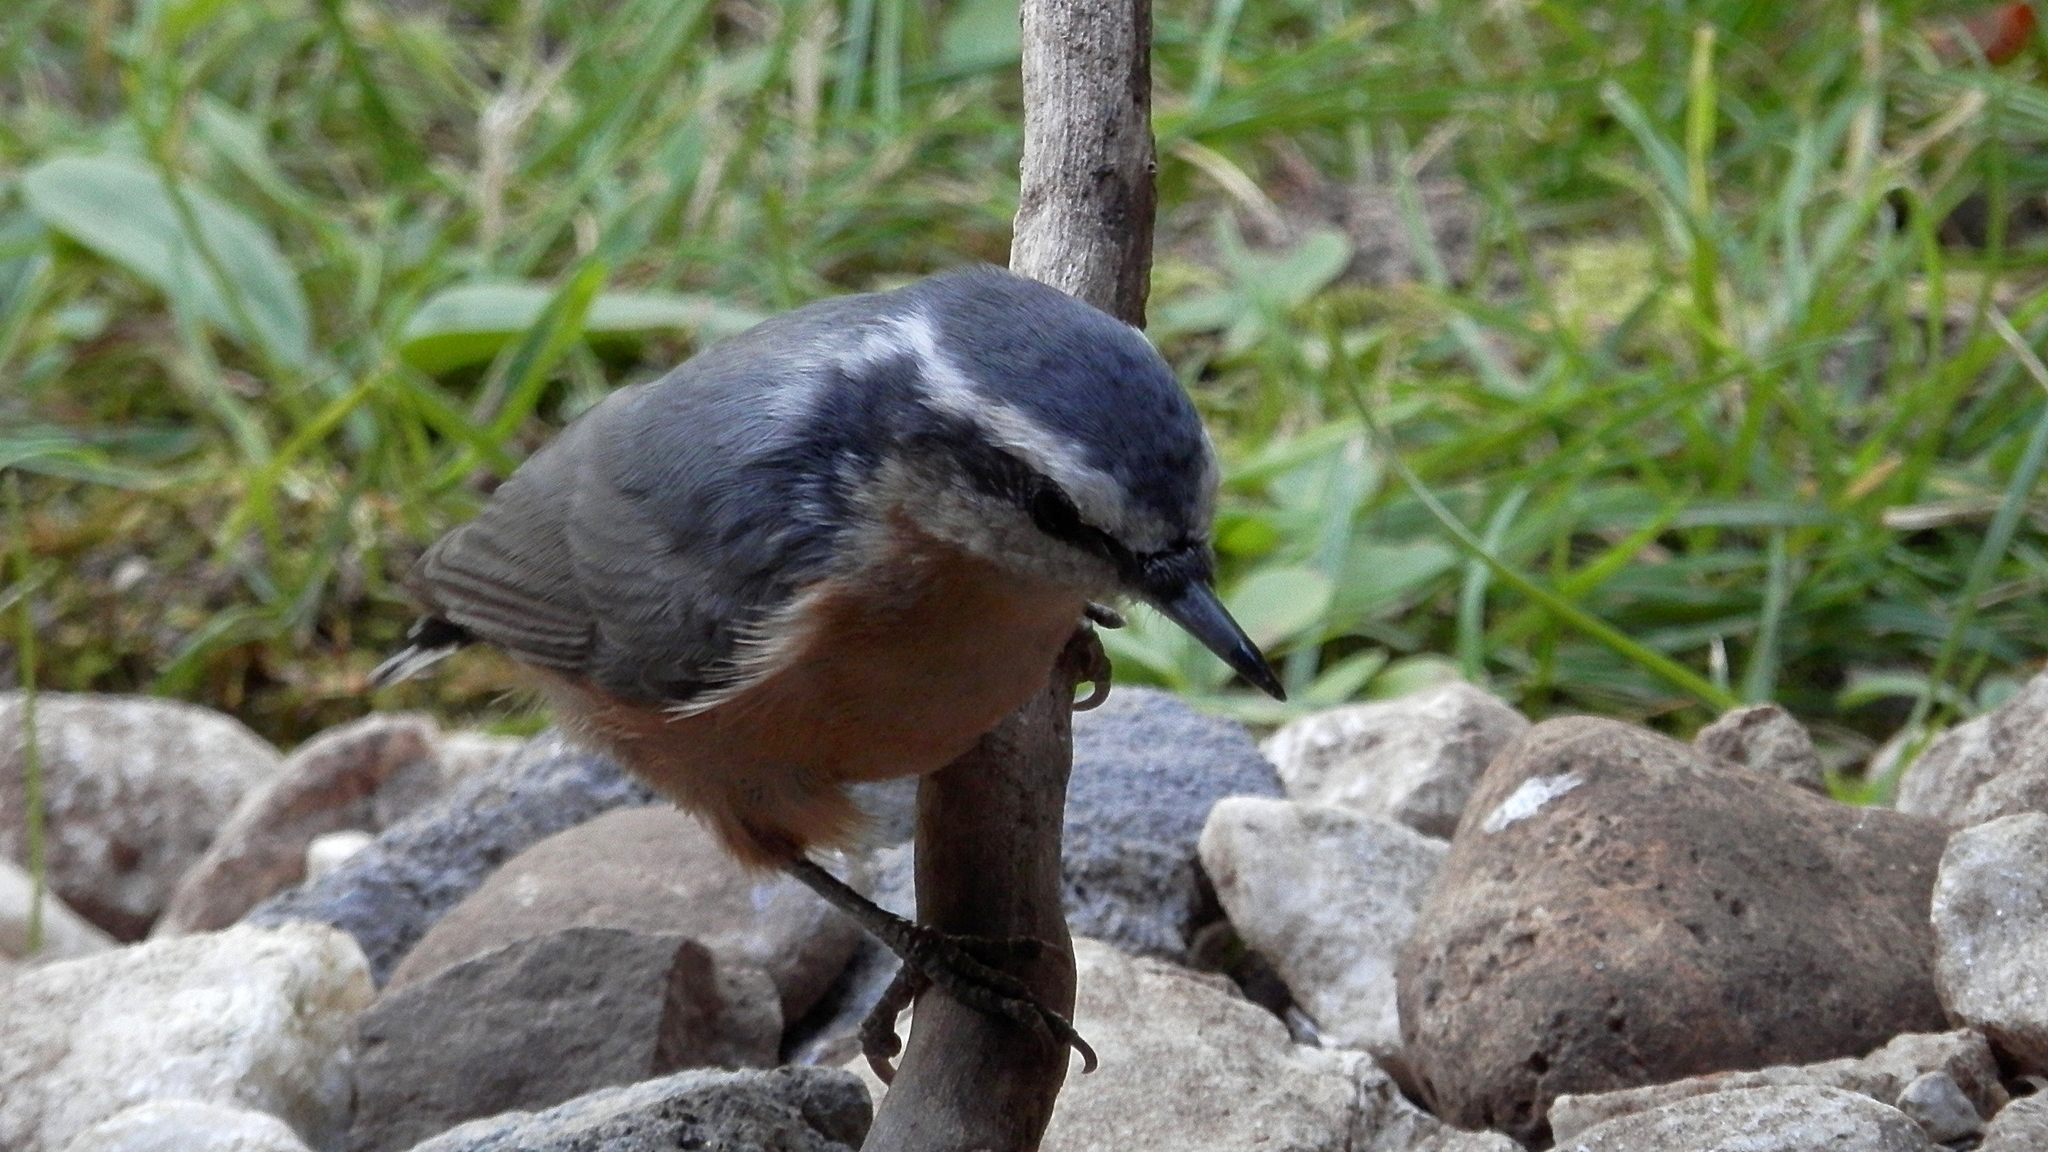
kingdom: Animalia
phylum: Chordata
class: Aves
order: Passeriformes
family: Sittidae
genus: Sitta
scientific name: Sitta canadensis
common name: Red-breasted nuthatch
